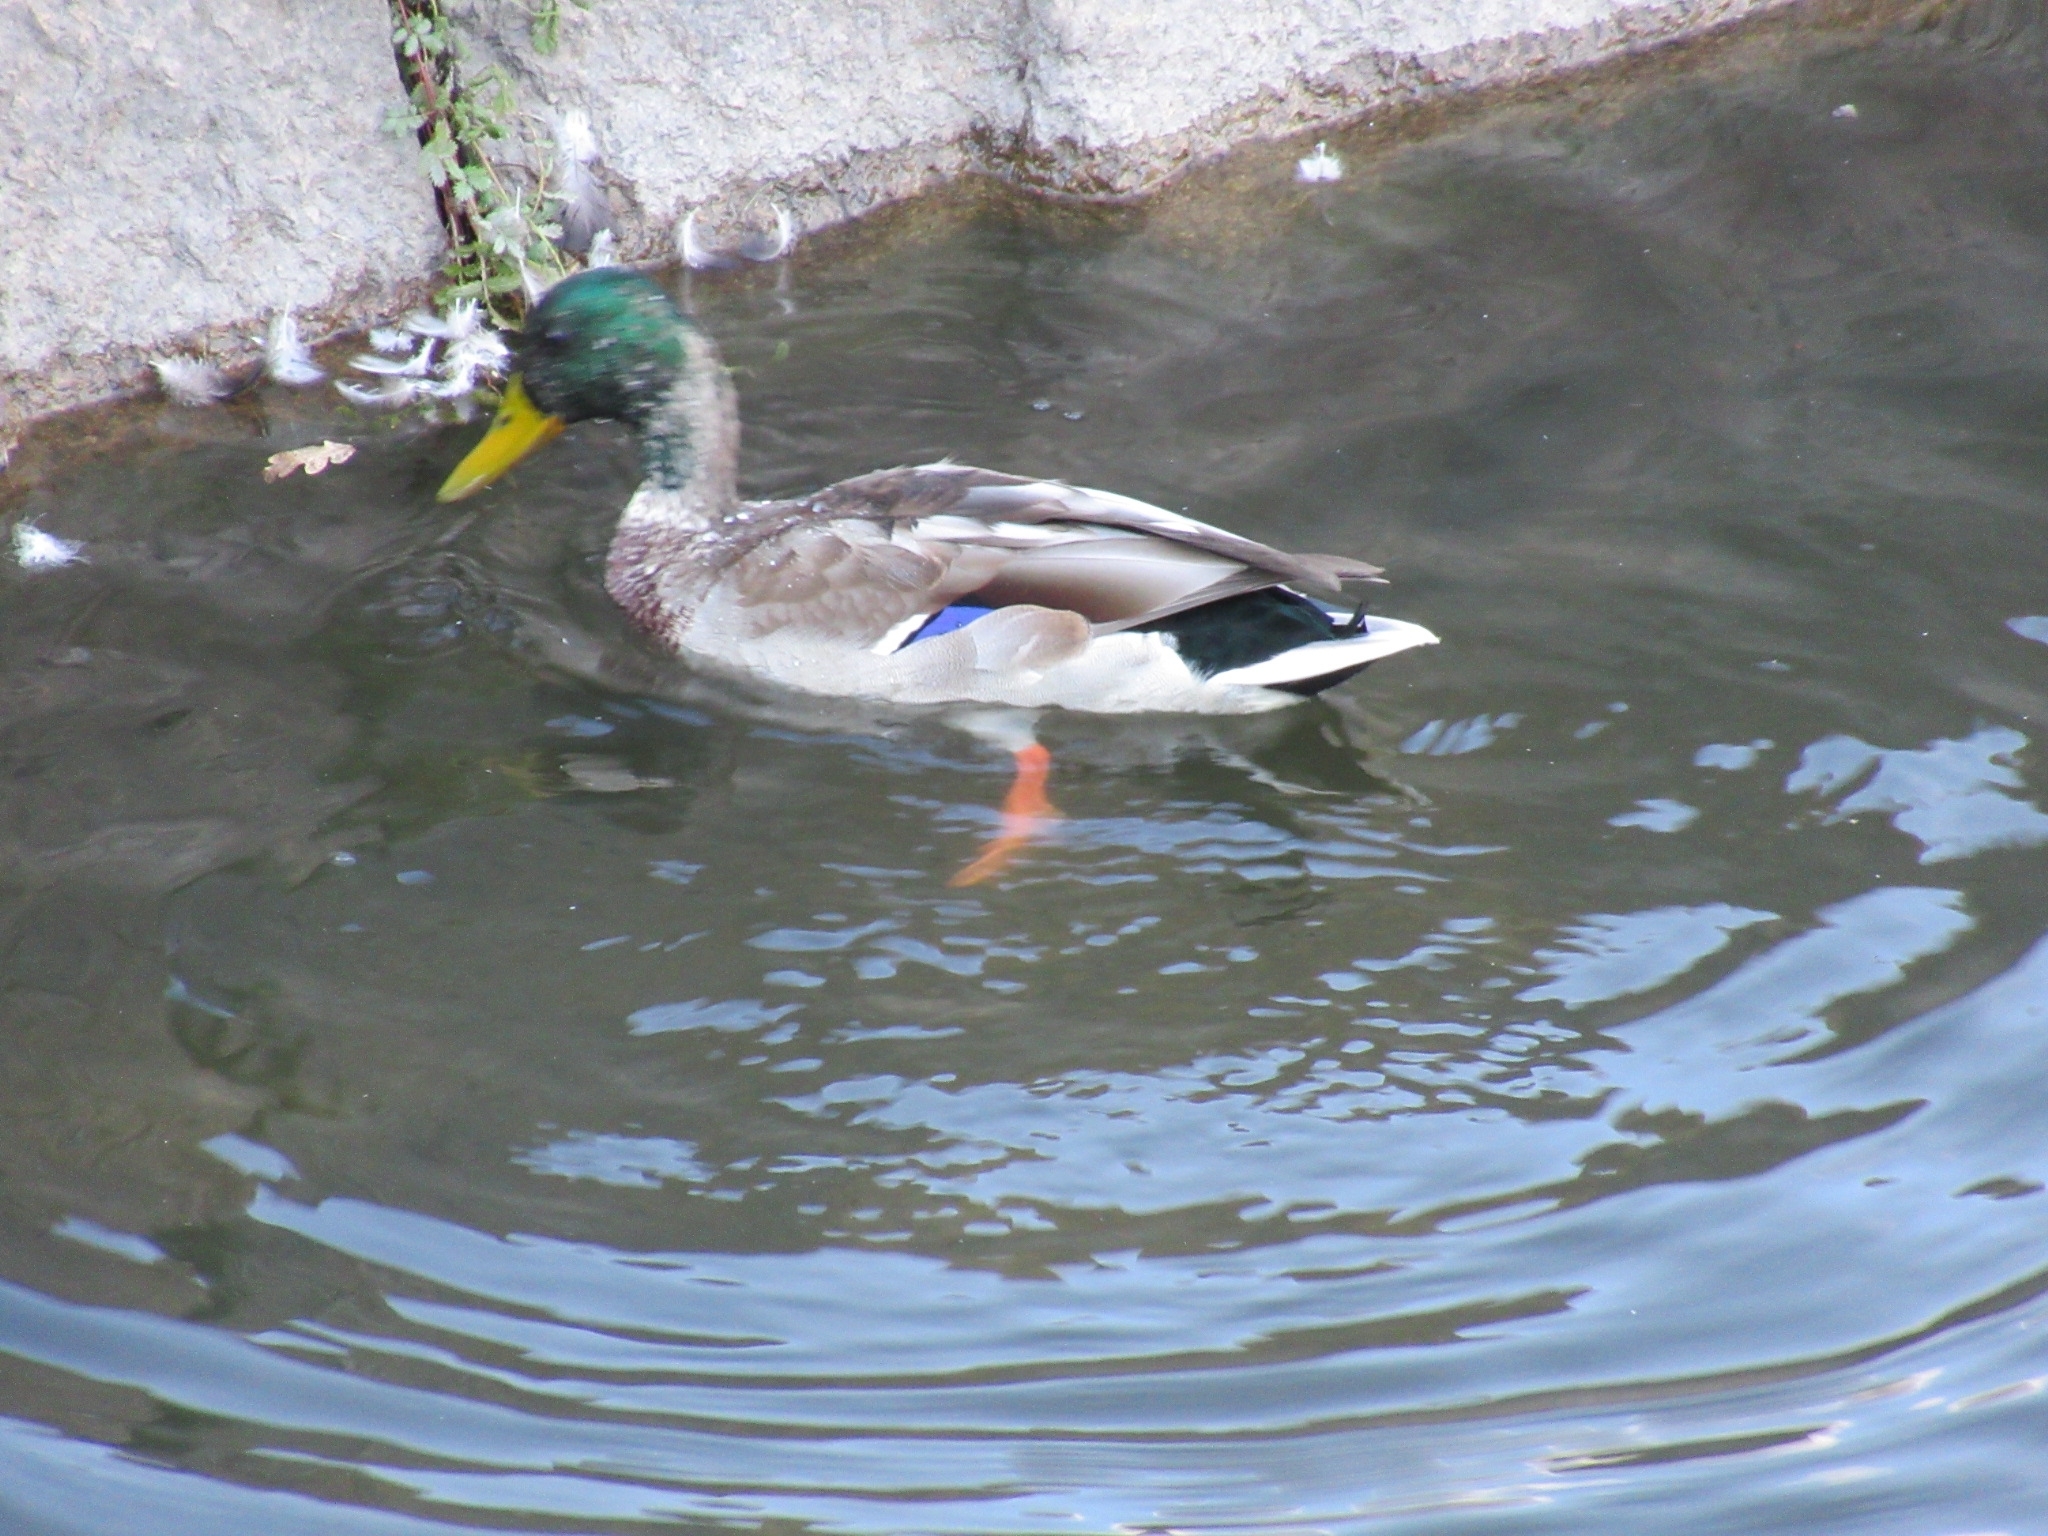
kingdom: Animalia
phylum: Chordata
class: Aves
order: Anseriformes
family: Anatidae
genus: Anas
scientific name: Anas platyrhynchos
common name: Mallard
